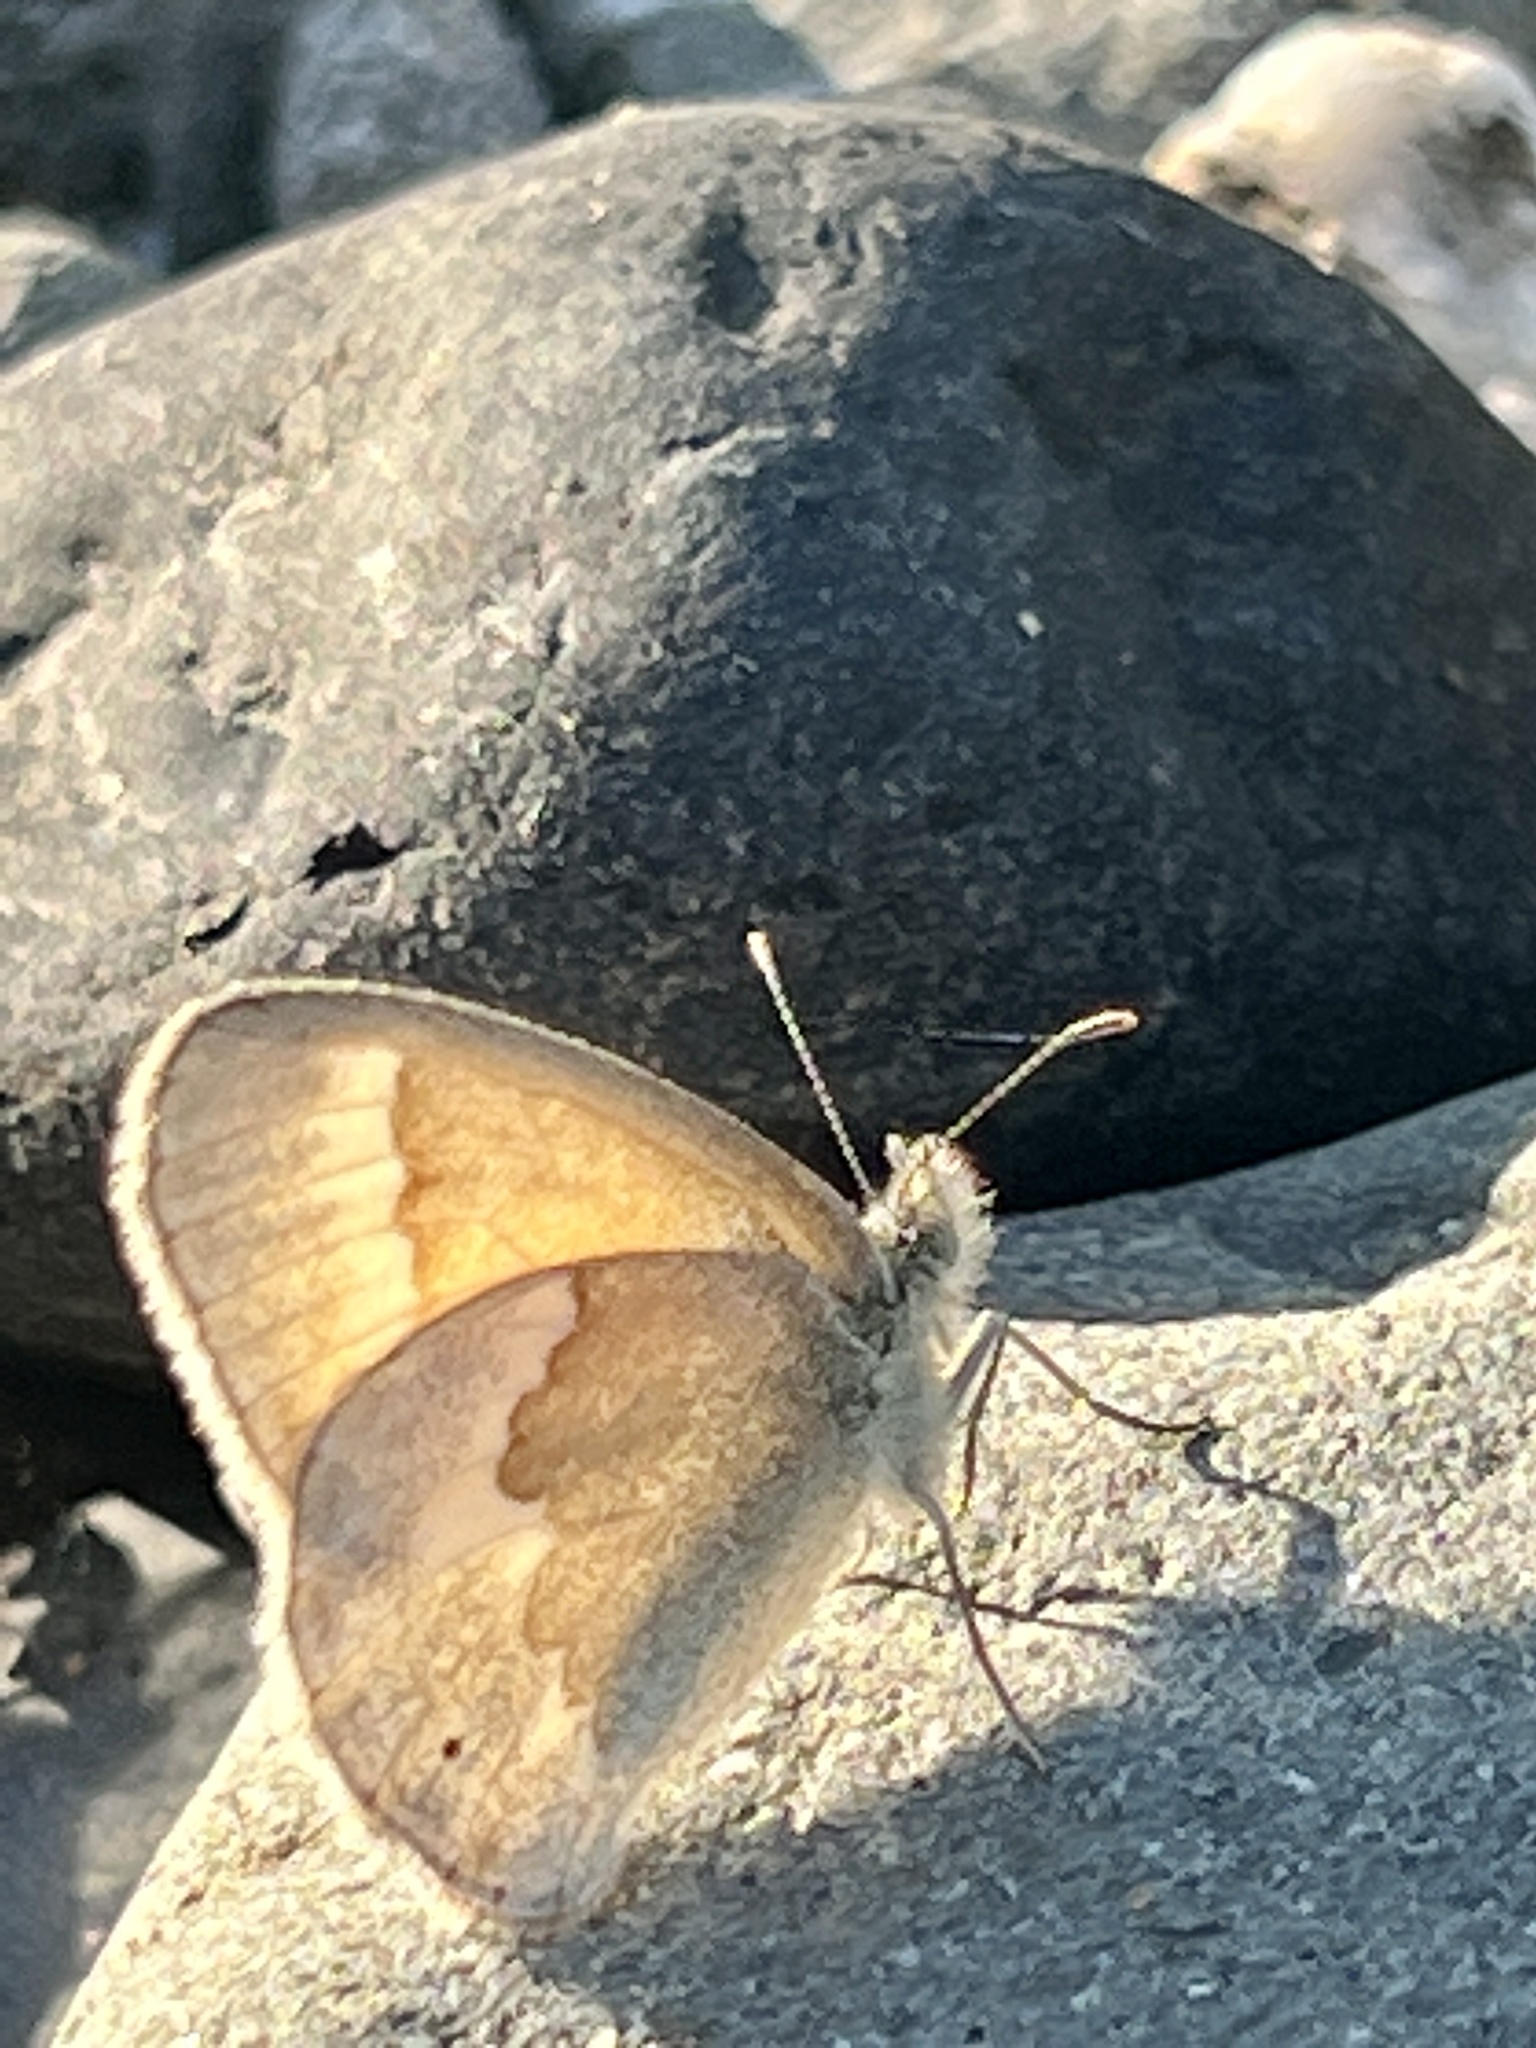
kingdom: Animalia
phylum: Arthropoda
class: Insecta
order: Lepidoptera
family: Nymphalidae
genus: Coenonympha
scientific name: Coenonympha california
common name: Common ringlet
